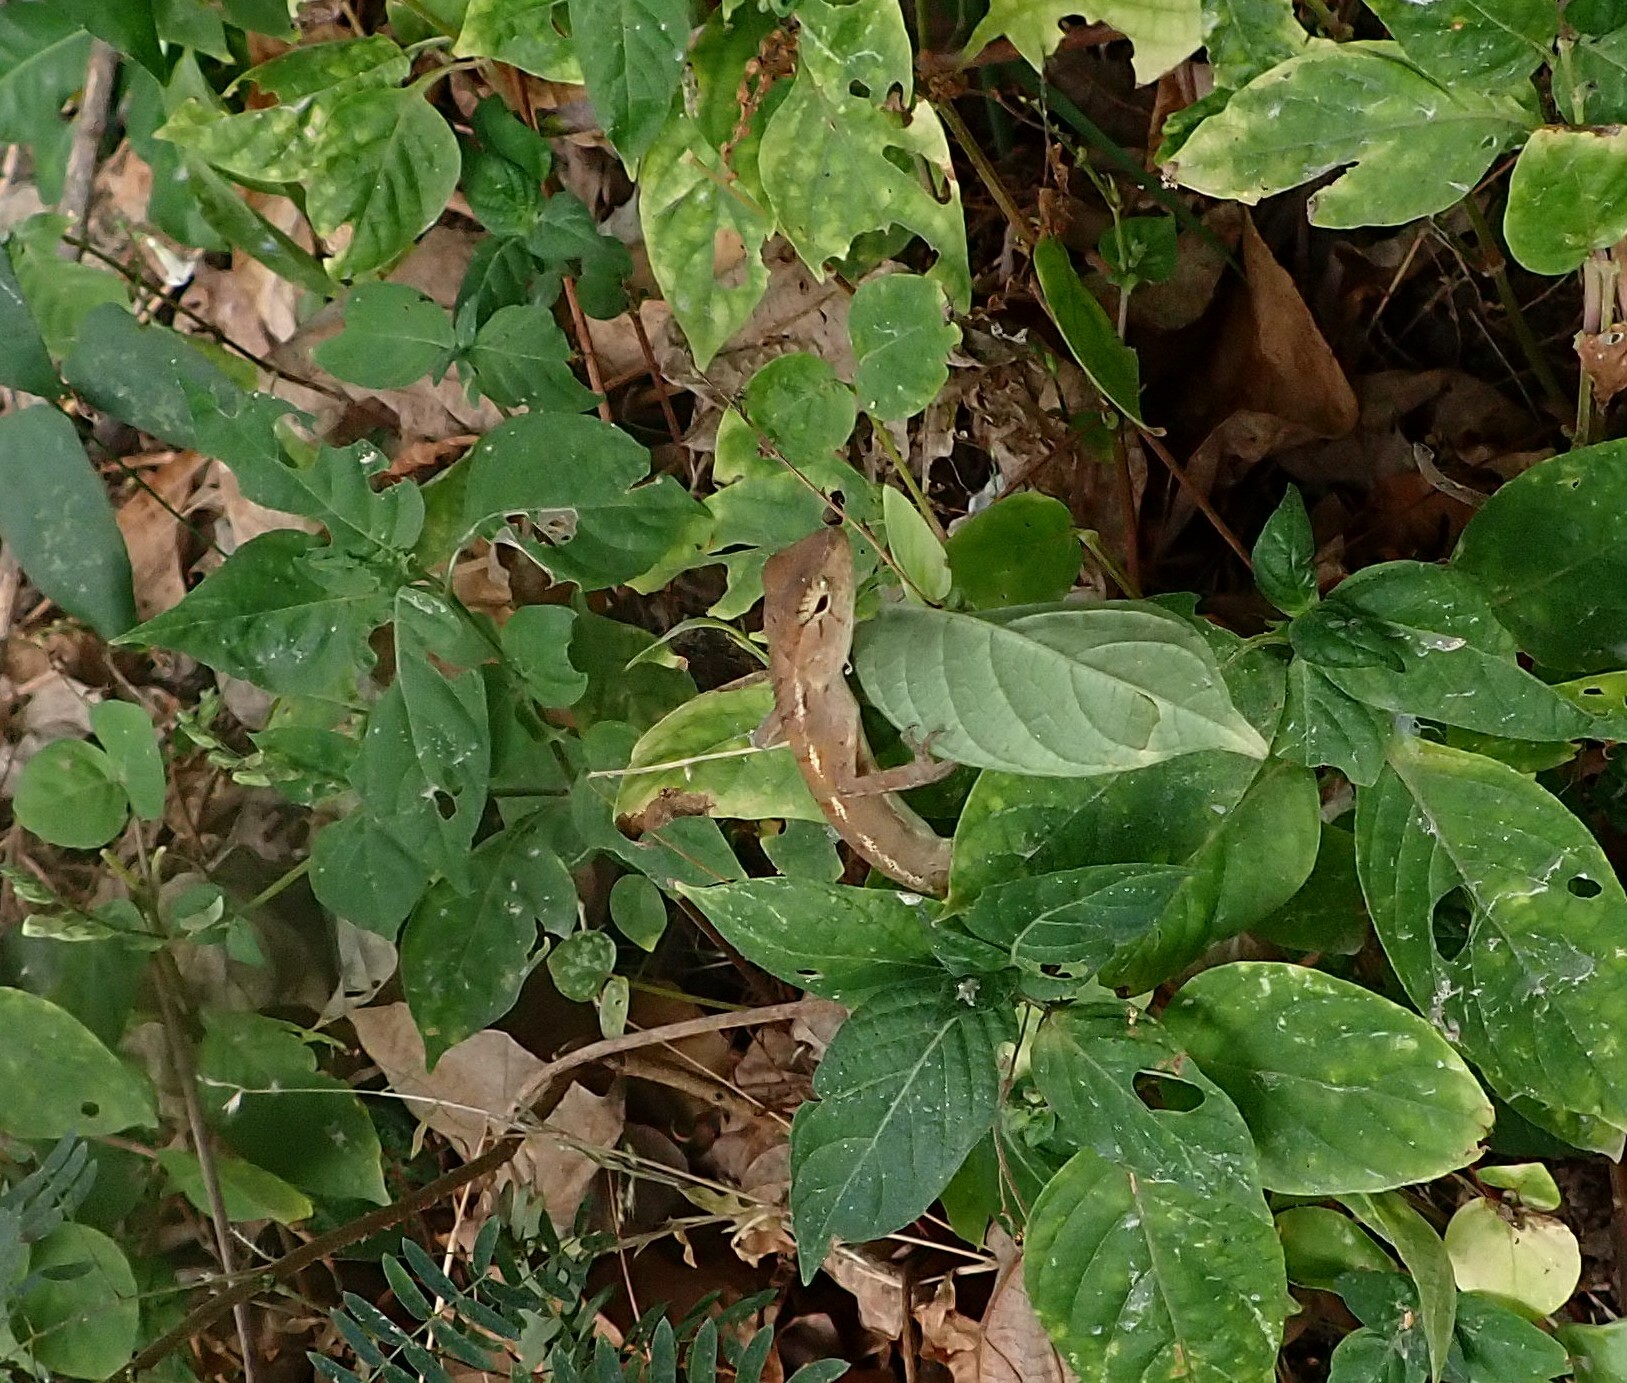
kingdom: Animalia
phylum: Chordata
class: Squamata
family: Agamidae
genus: Calotes
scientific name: Calotes versicolor
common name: Oriental garden lizard
